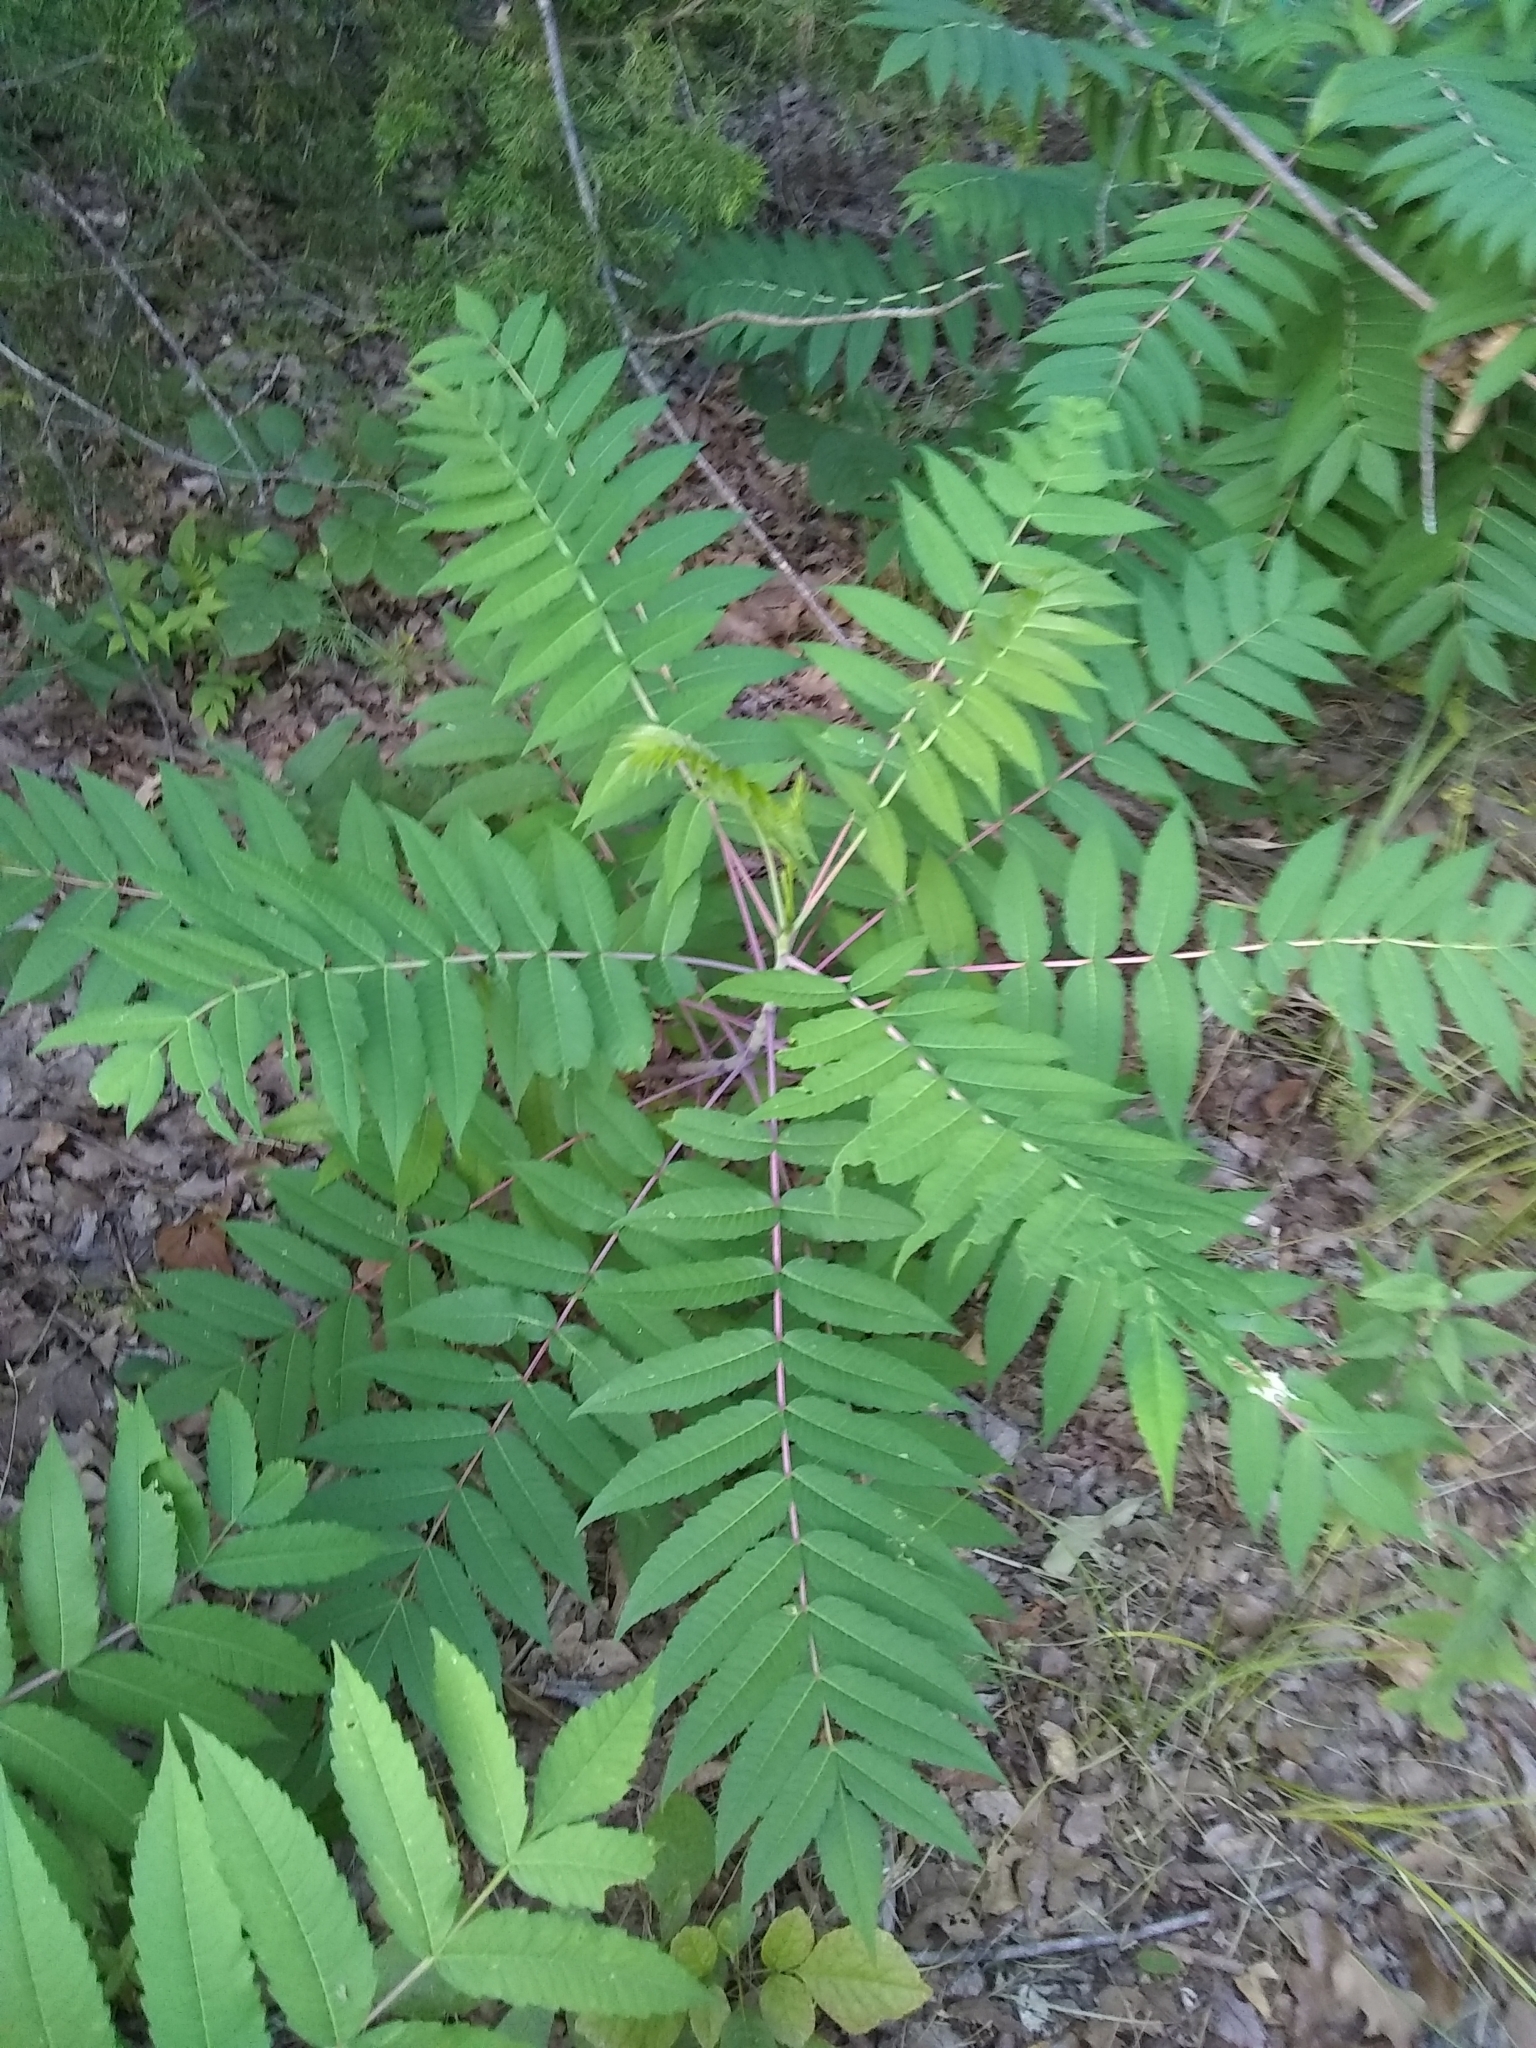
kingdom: Plantae
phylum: Tracheophyta
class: Magnoliopsida
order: Sapindales
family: Anacardiaceae
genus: Rhus
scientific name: Rhus glabra
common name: Scarlet sumac
